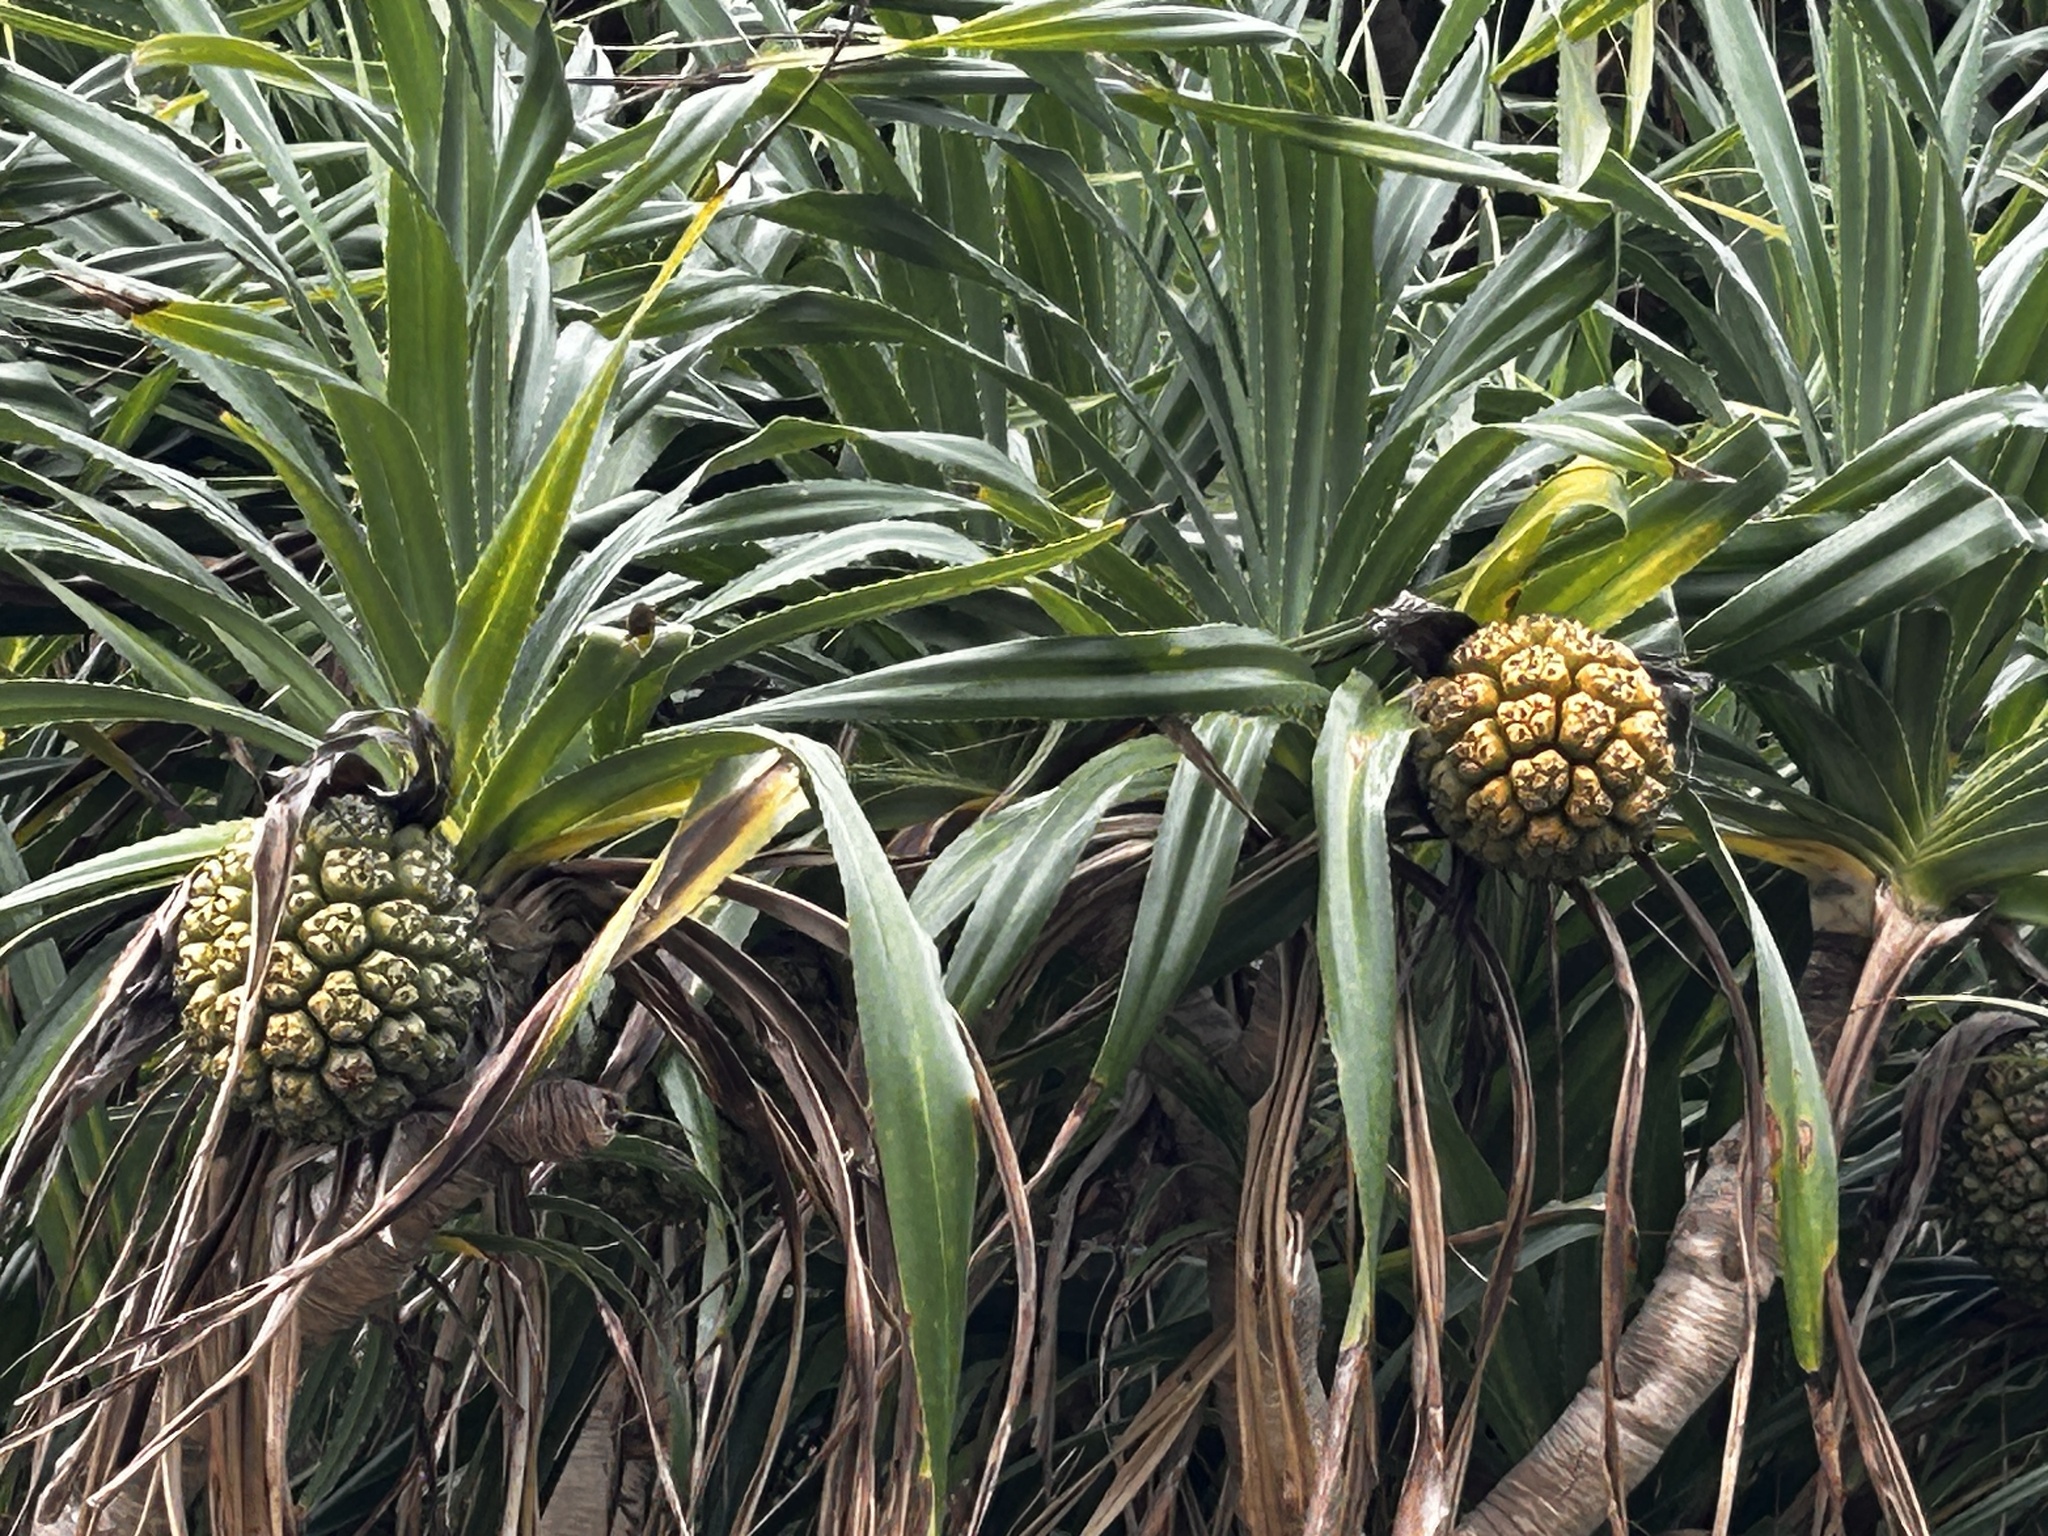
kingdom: Plantae
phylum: Tracheophyta
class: Liliopsida
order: Pandanales
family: Pandanaceae
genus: Pandanus
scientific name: Pandanus tectorius
